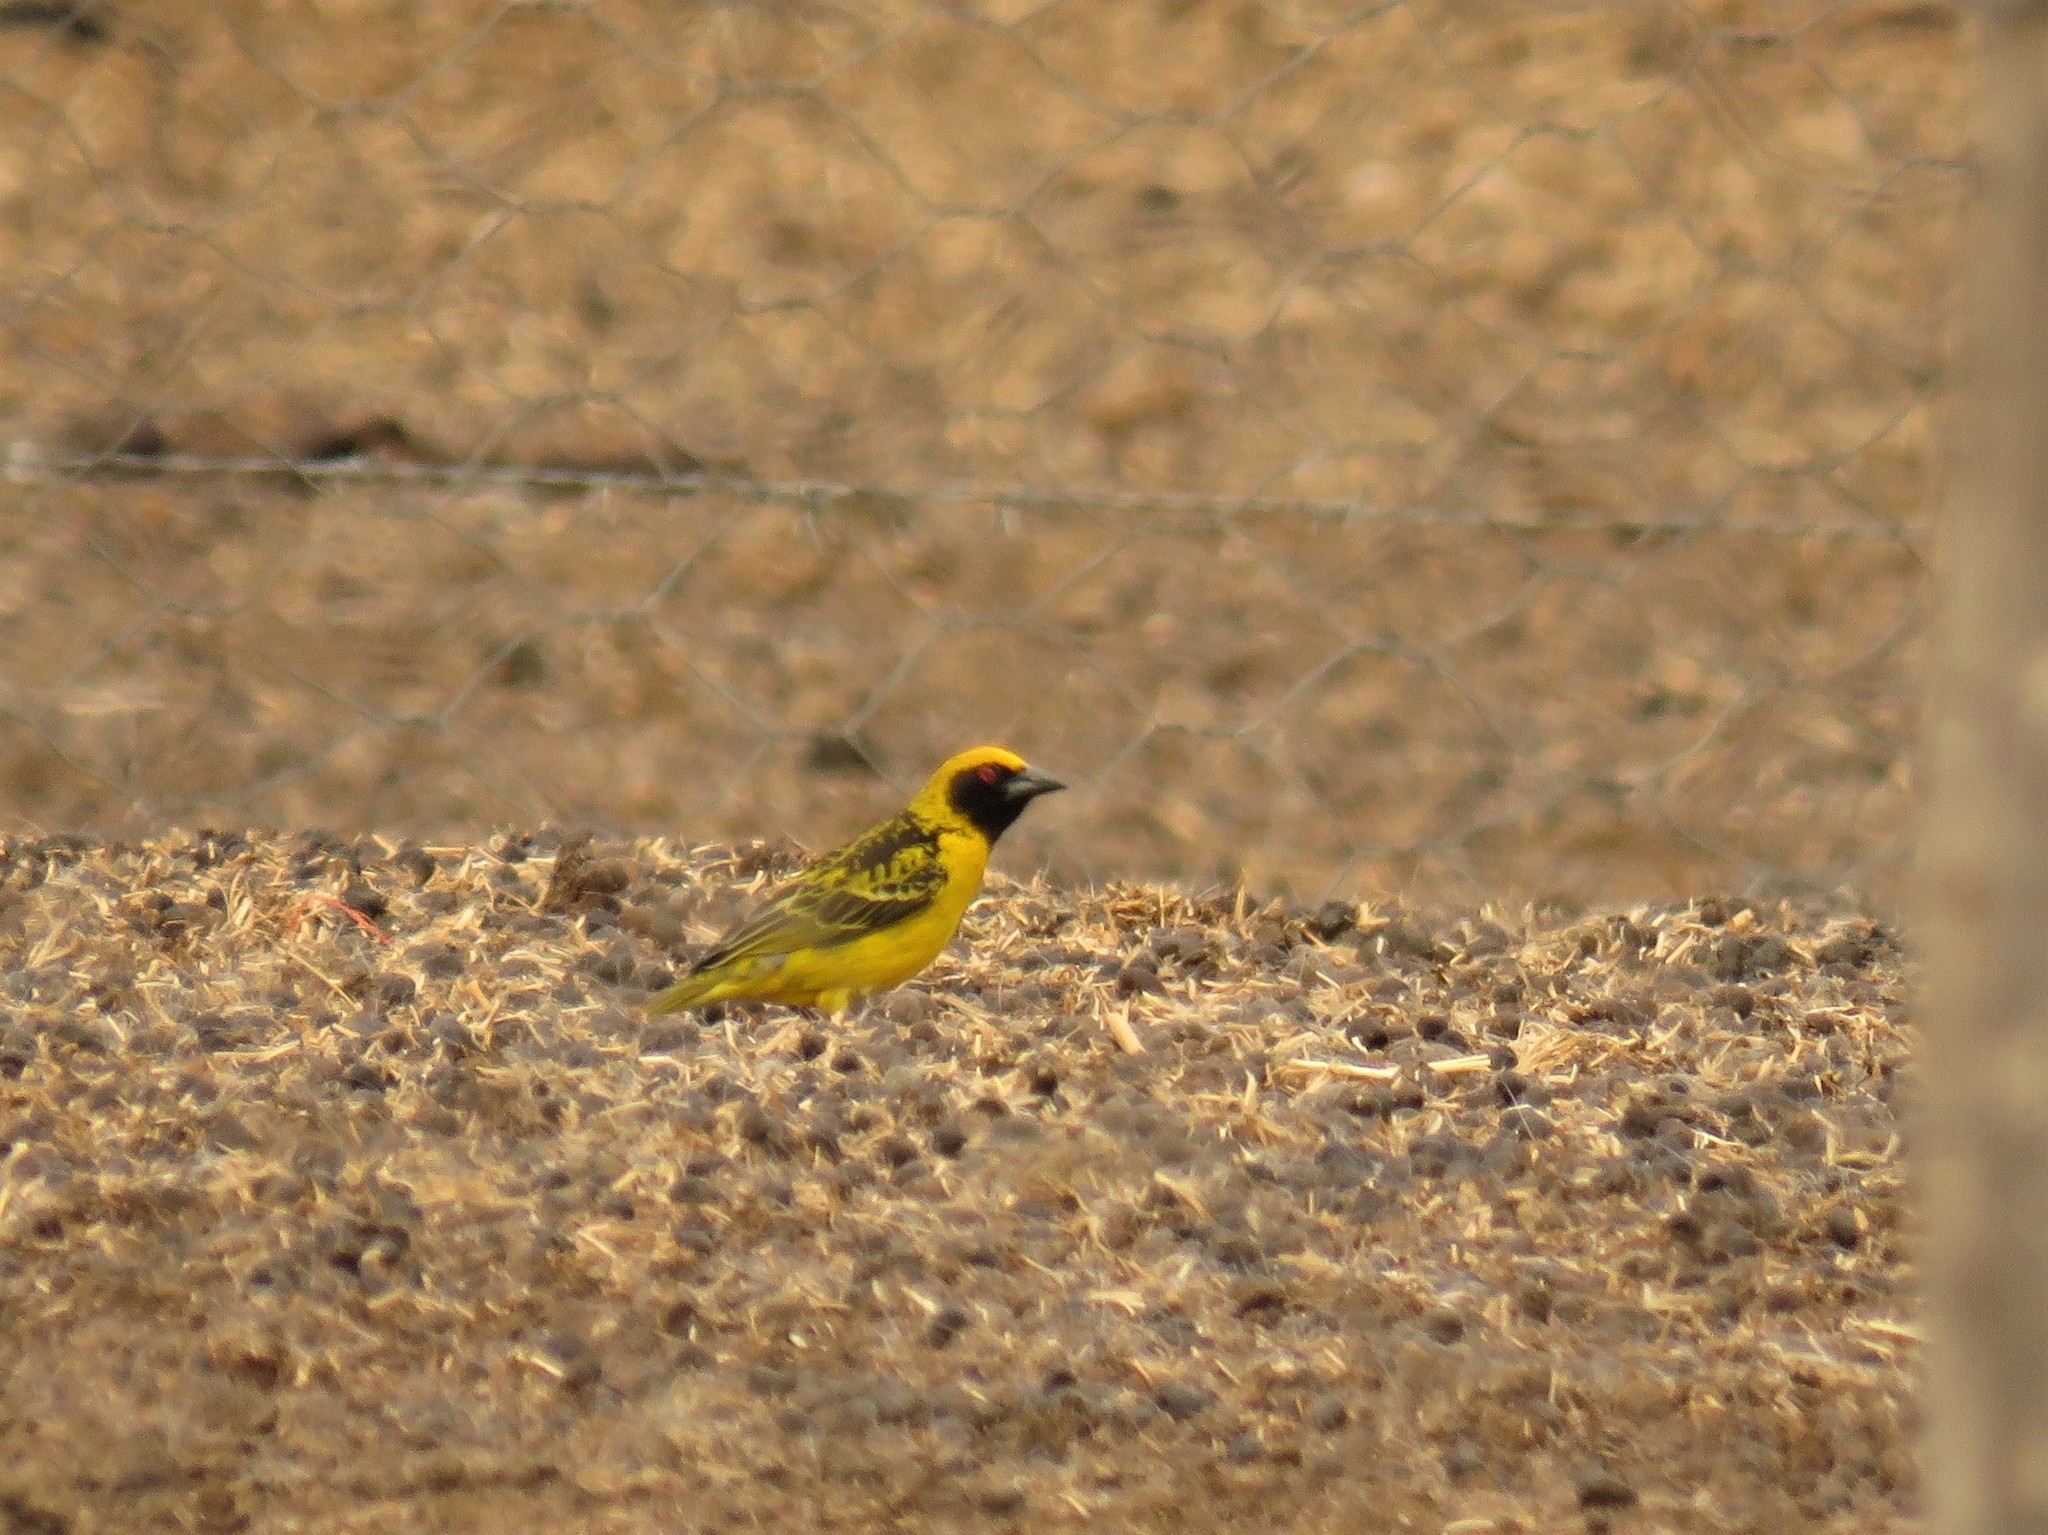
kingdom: Animalia
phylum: Chordata
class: Aves
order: Passeriformes
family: Ploceidae
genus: Ploceus
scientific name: Ploceus cucullatus
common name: Village weaver
